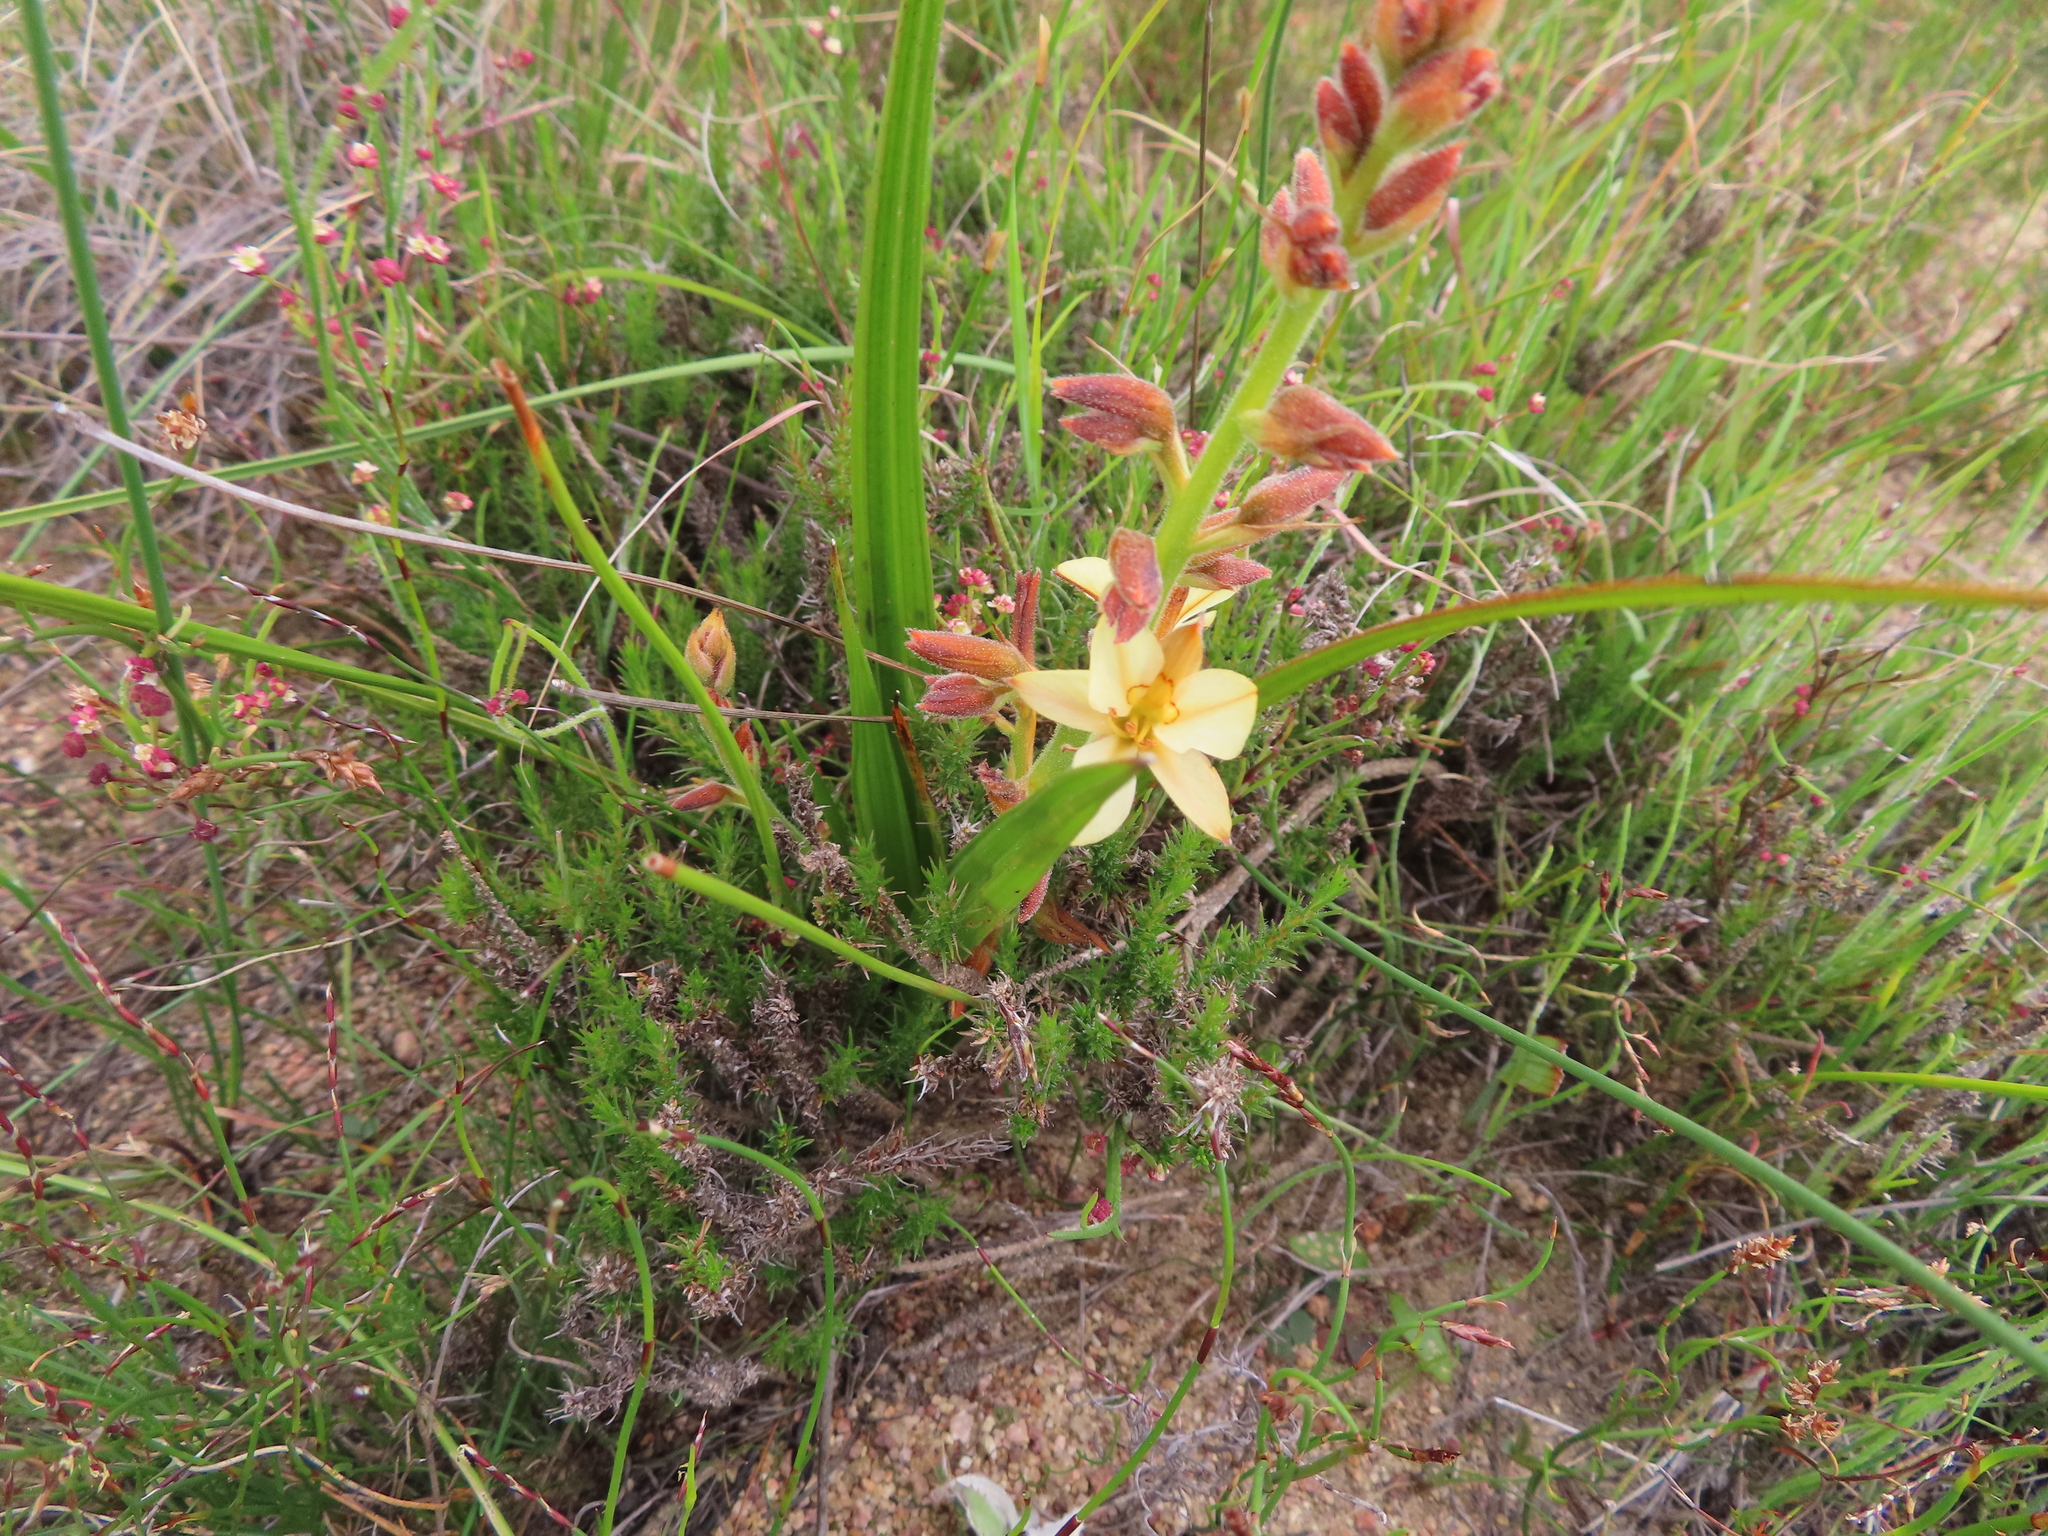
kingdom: Plantae
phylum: Tracheophyta
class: Liliopsida
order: Commelinales
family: Haemodoraceae
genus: Wachendorfia
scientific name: Wachendorfia paniculata
